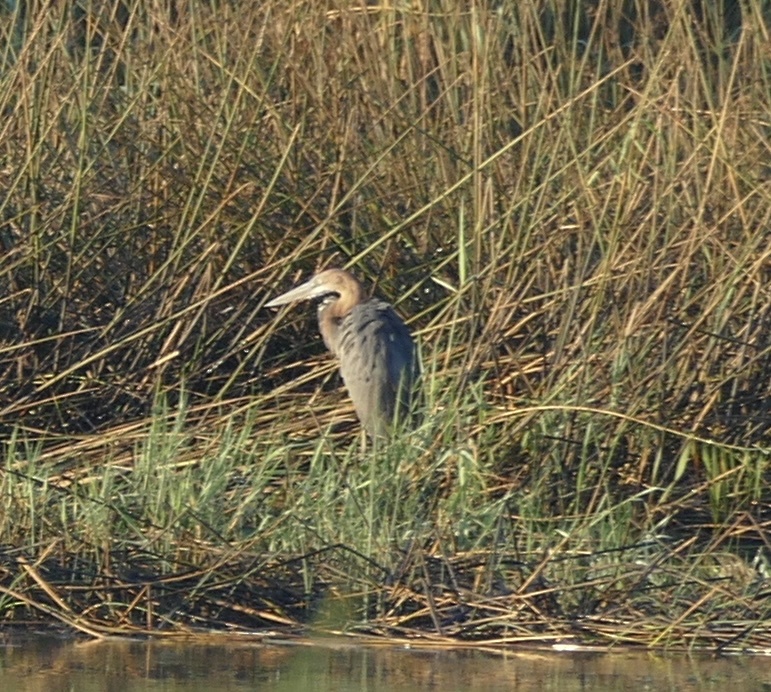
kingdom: Animalia
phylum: Chordata
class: Aves
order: Pelecaniformes
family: Ardeidae
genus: Ardea
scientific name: Ardea goliath
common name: Goliath heron
